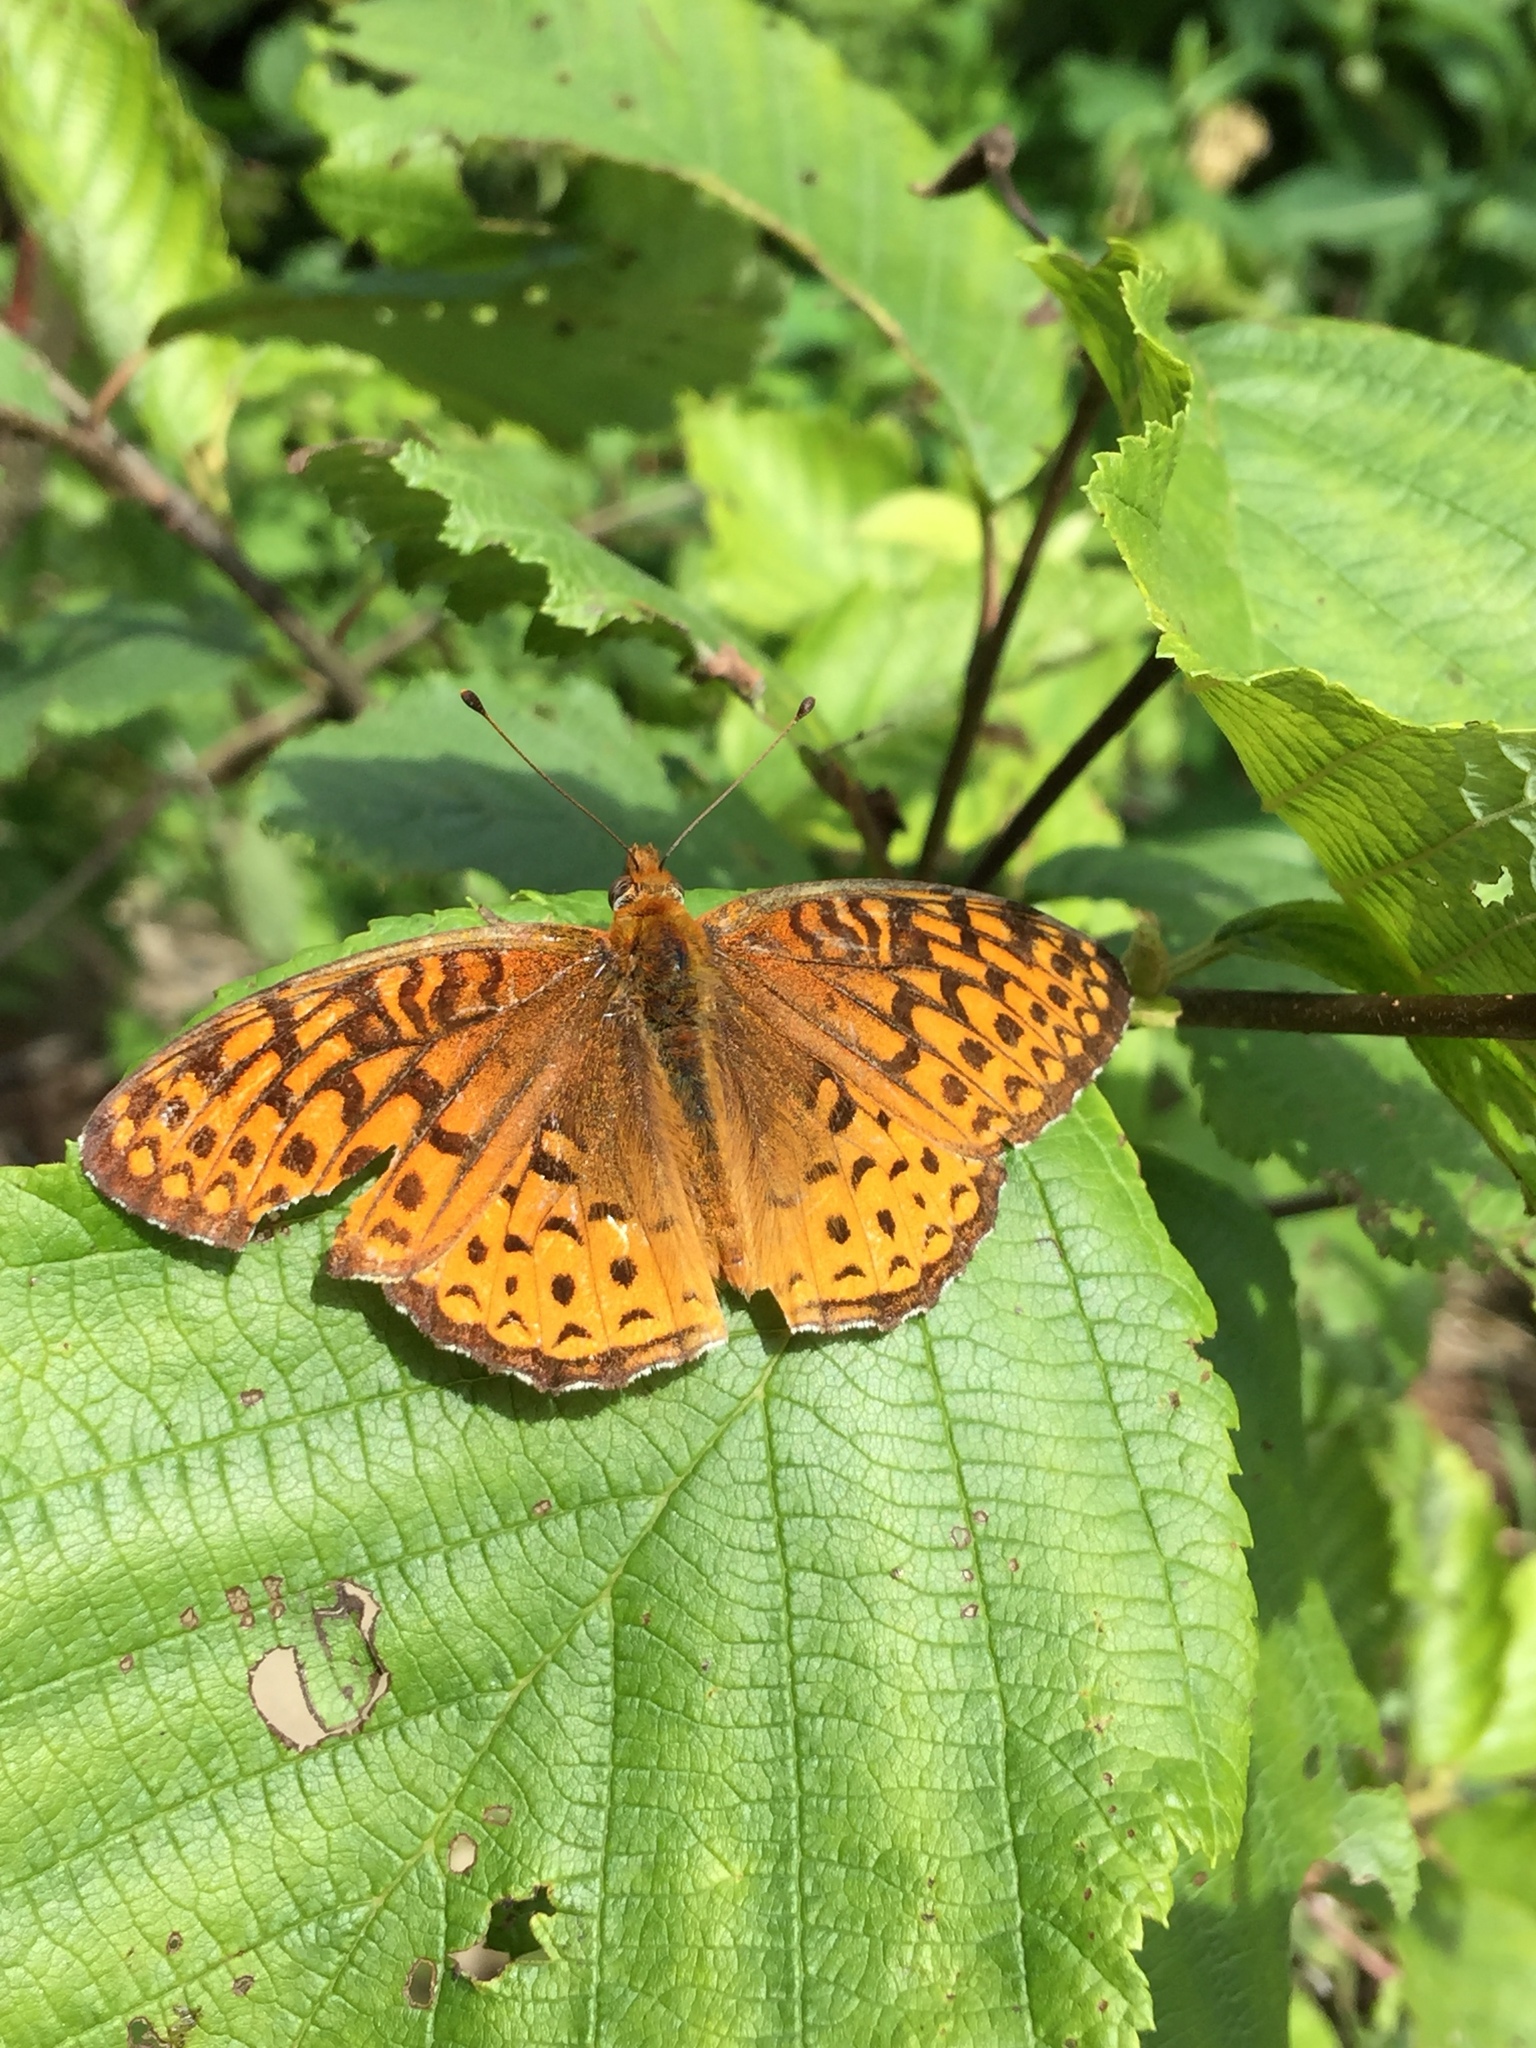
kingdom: Animalia
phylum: Arthropoda
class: Insecta
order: Lepidoptera
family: Nymphalidae
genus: Speyeria
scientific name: Speyeria atlantis
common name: Atlantis fritillary
